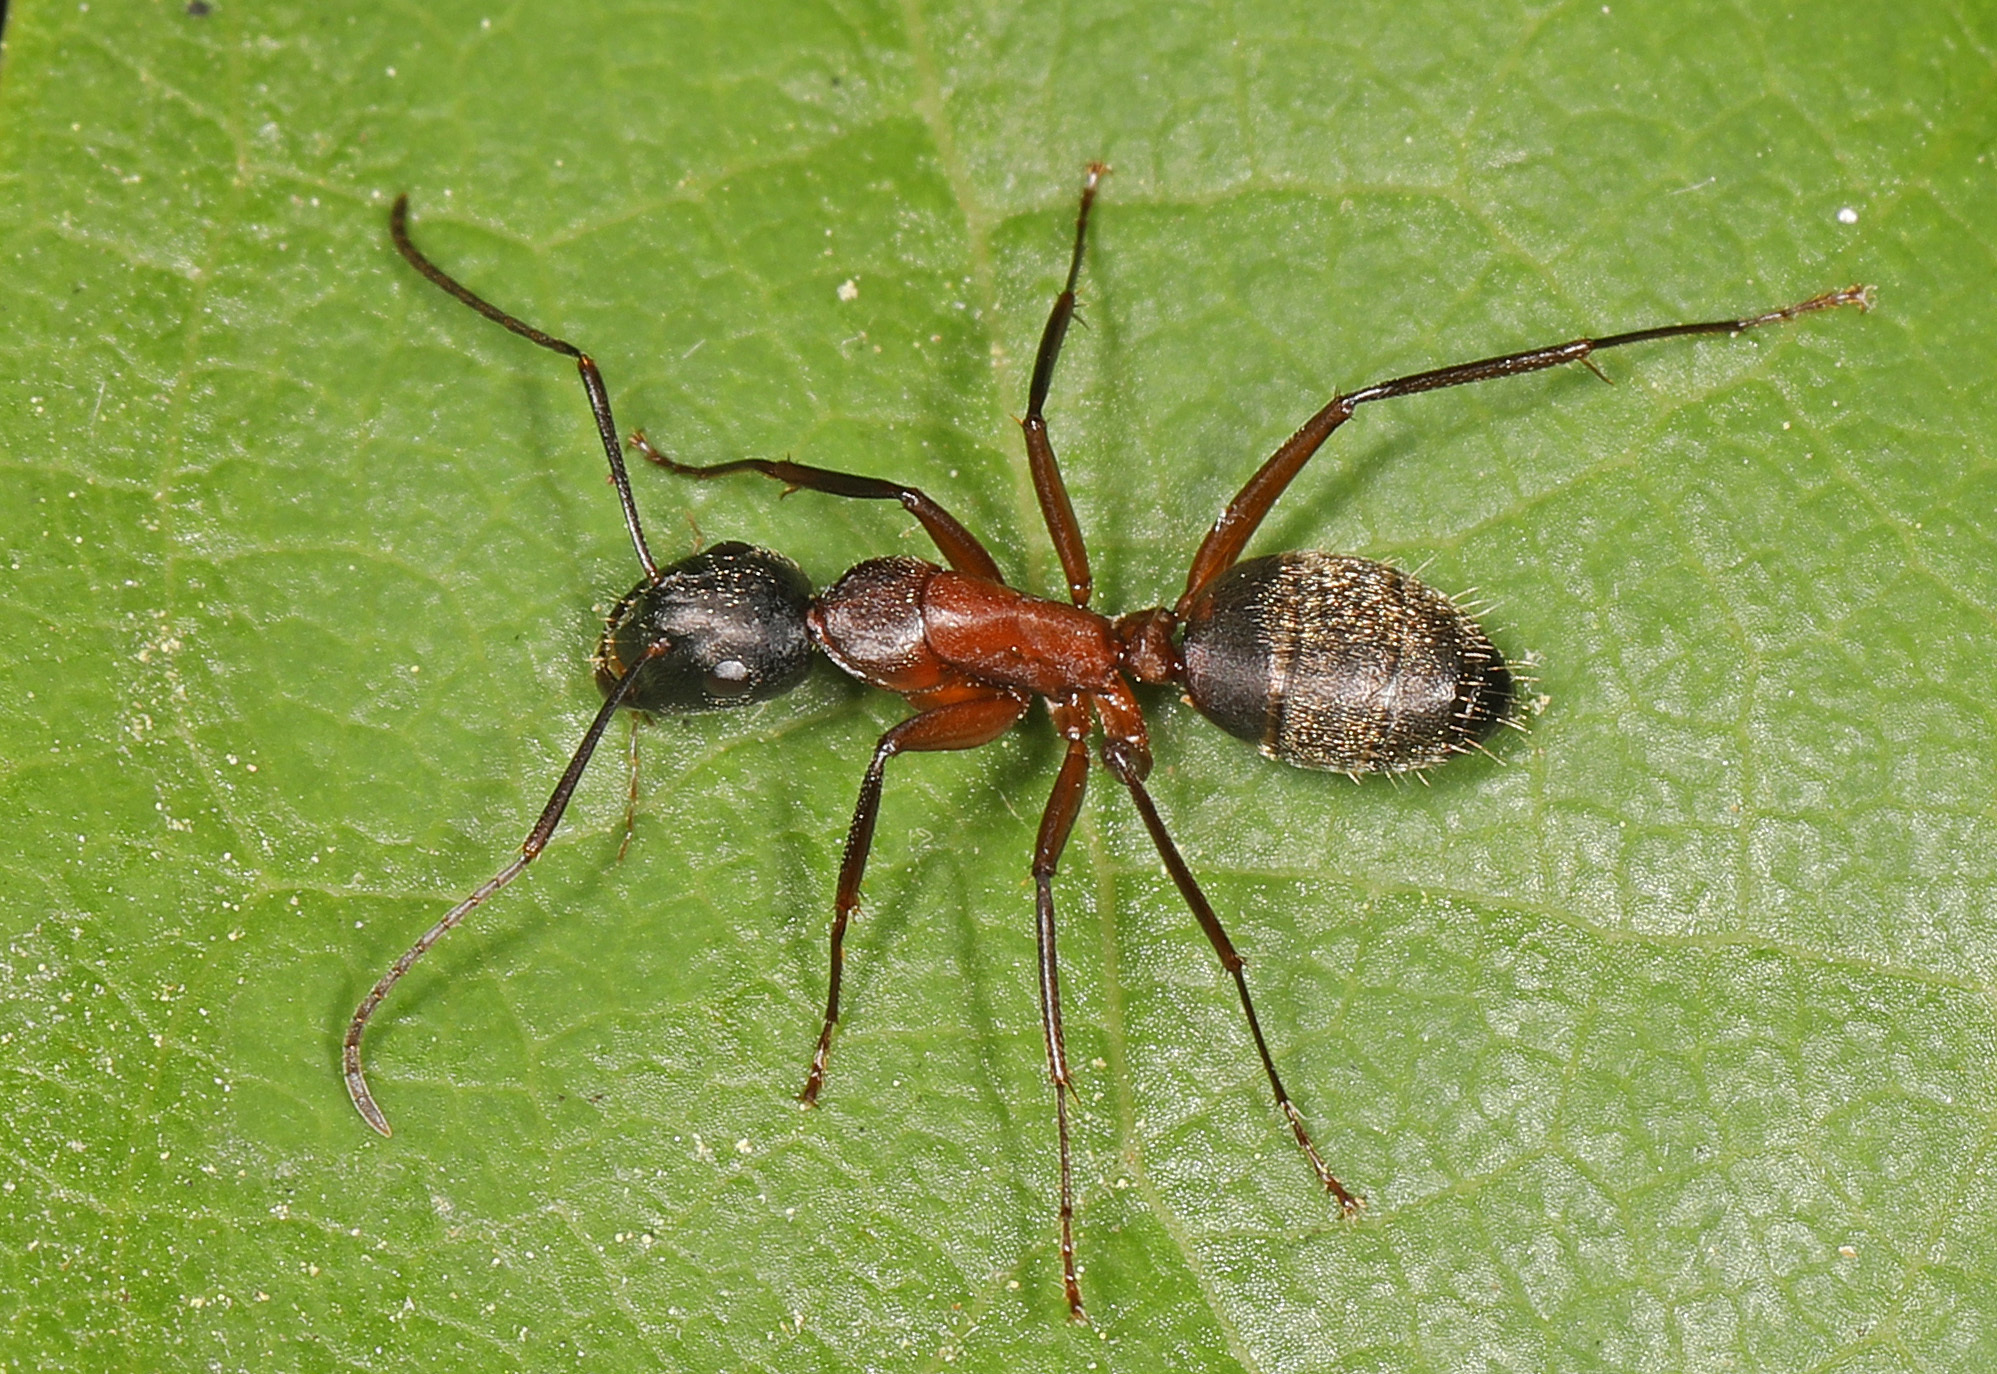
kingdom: Animalia
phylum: Arthropoda
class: Insecta
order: Hymenoptera
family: Formicidae
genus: Camponotus
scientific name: Camponotus chromaiodes
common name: Red carpenter ant
